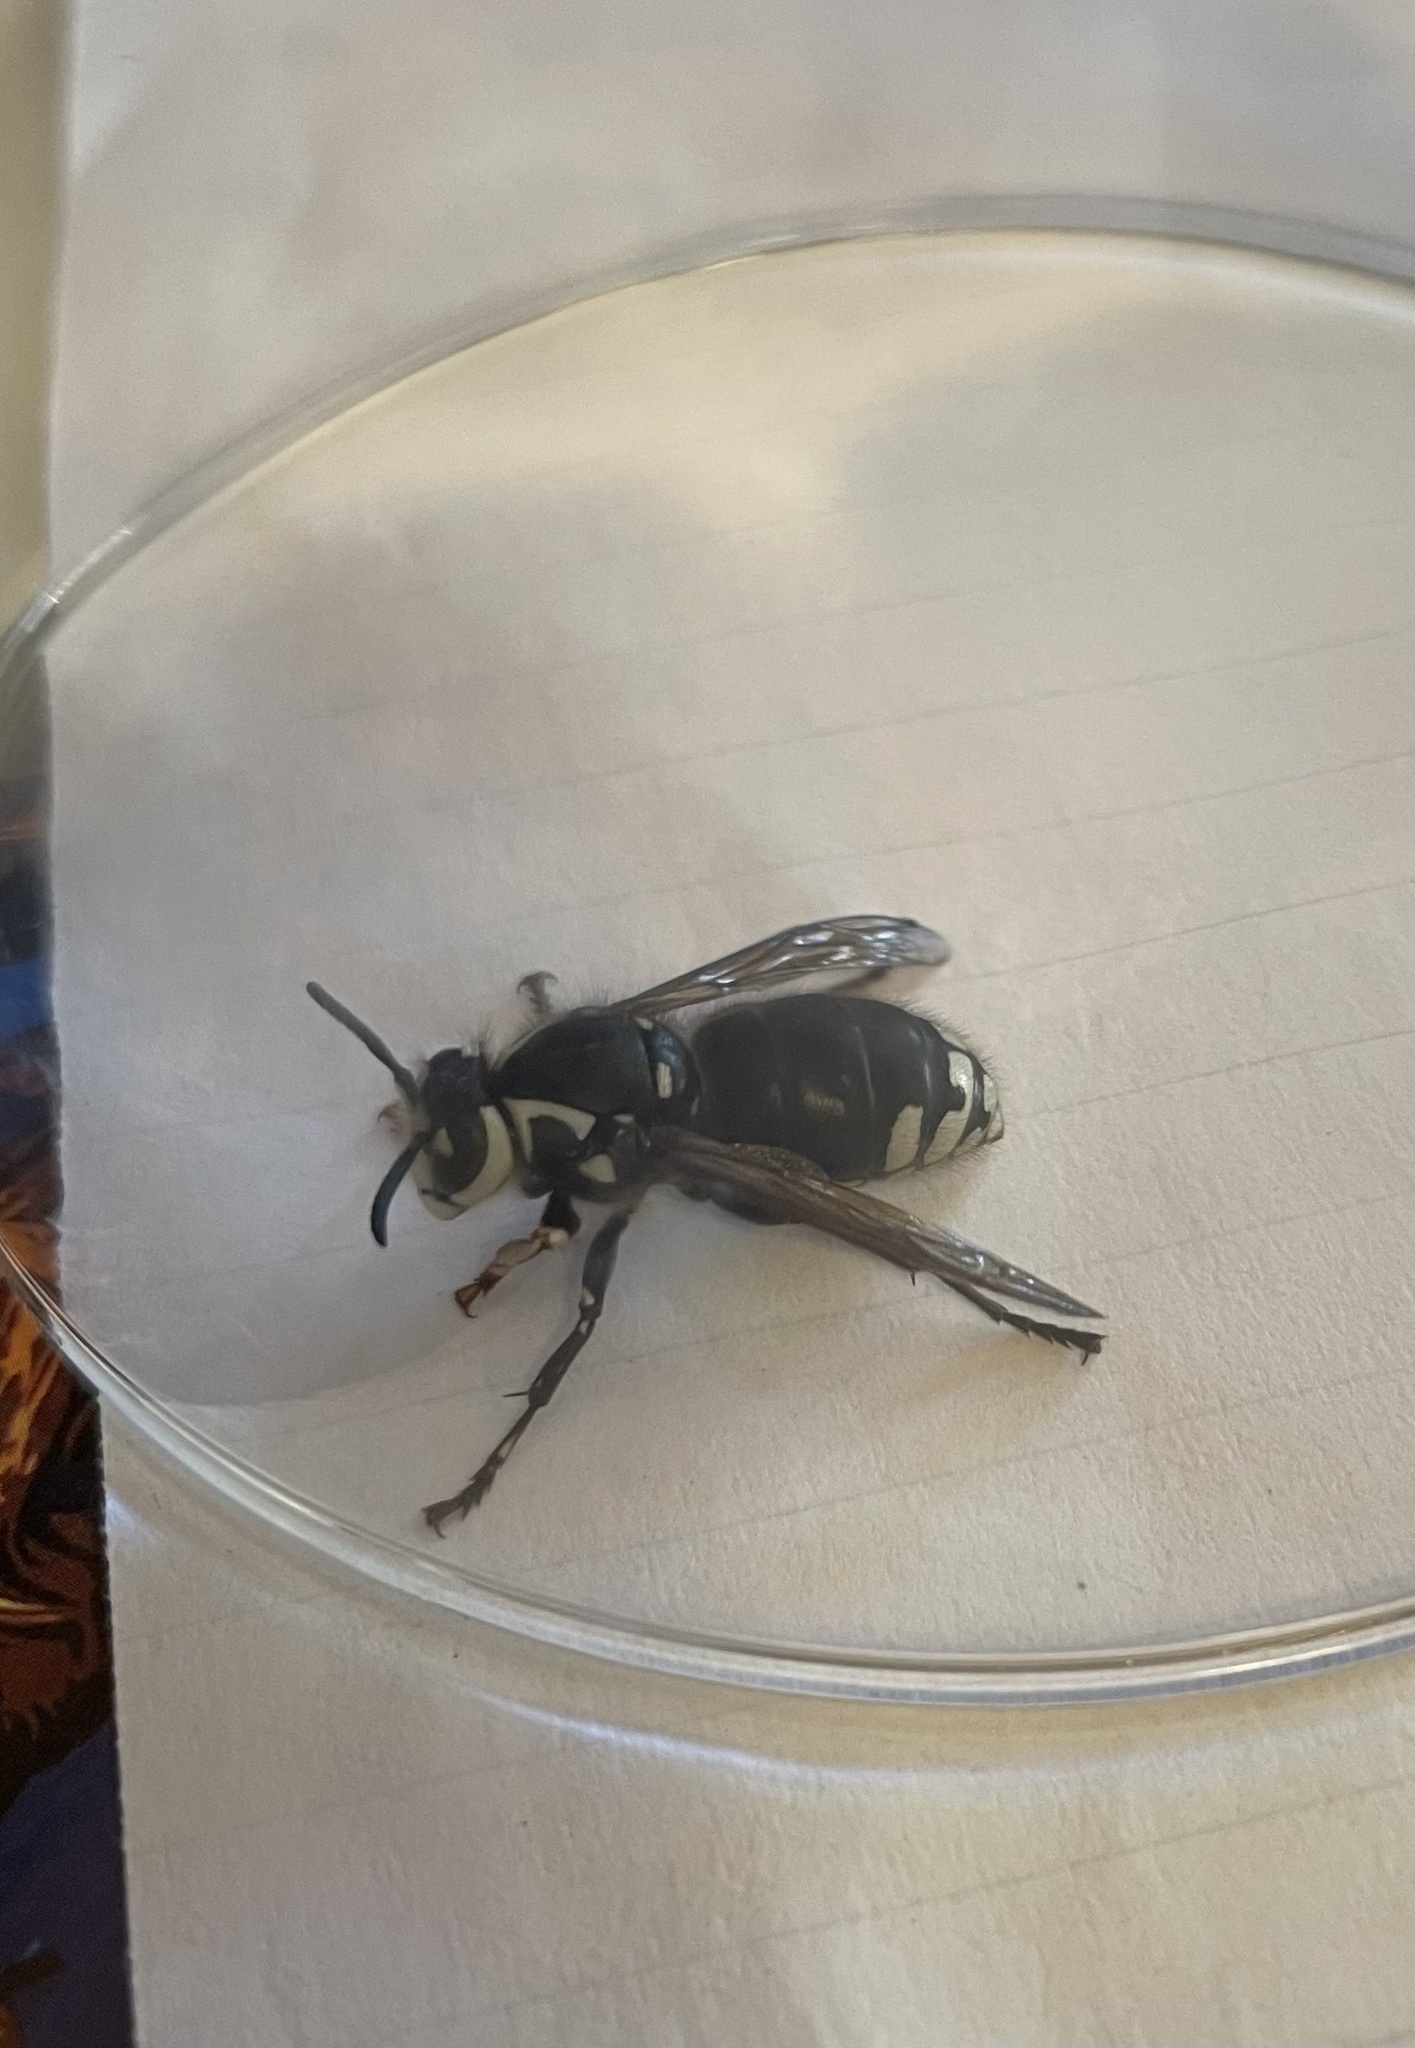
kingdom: Animalia
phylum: Arthropoda
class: Insecta
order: Hymenoptera
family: Vespidae
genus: Dolichovespula
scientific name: Dolichovespula maculata
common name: Bald-faced hornet
